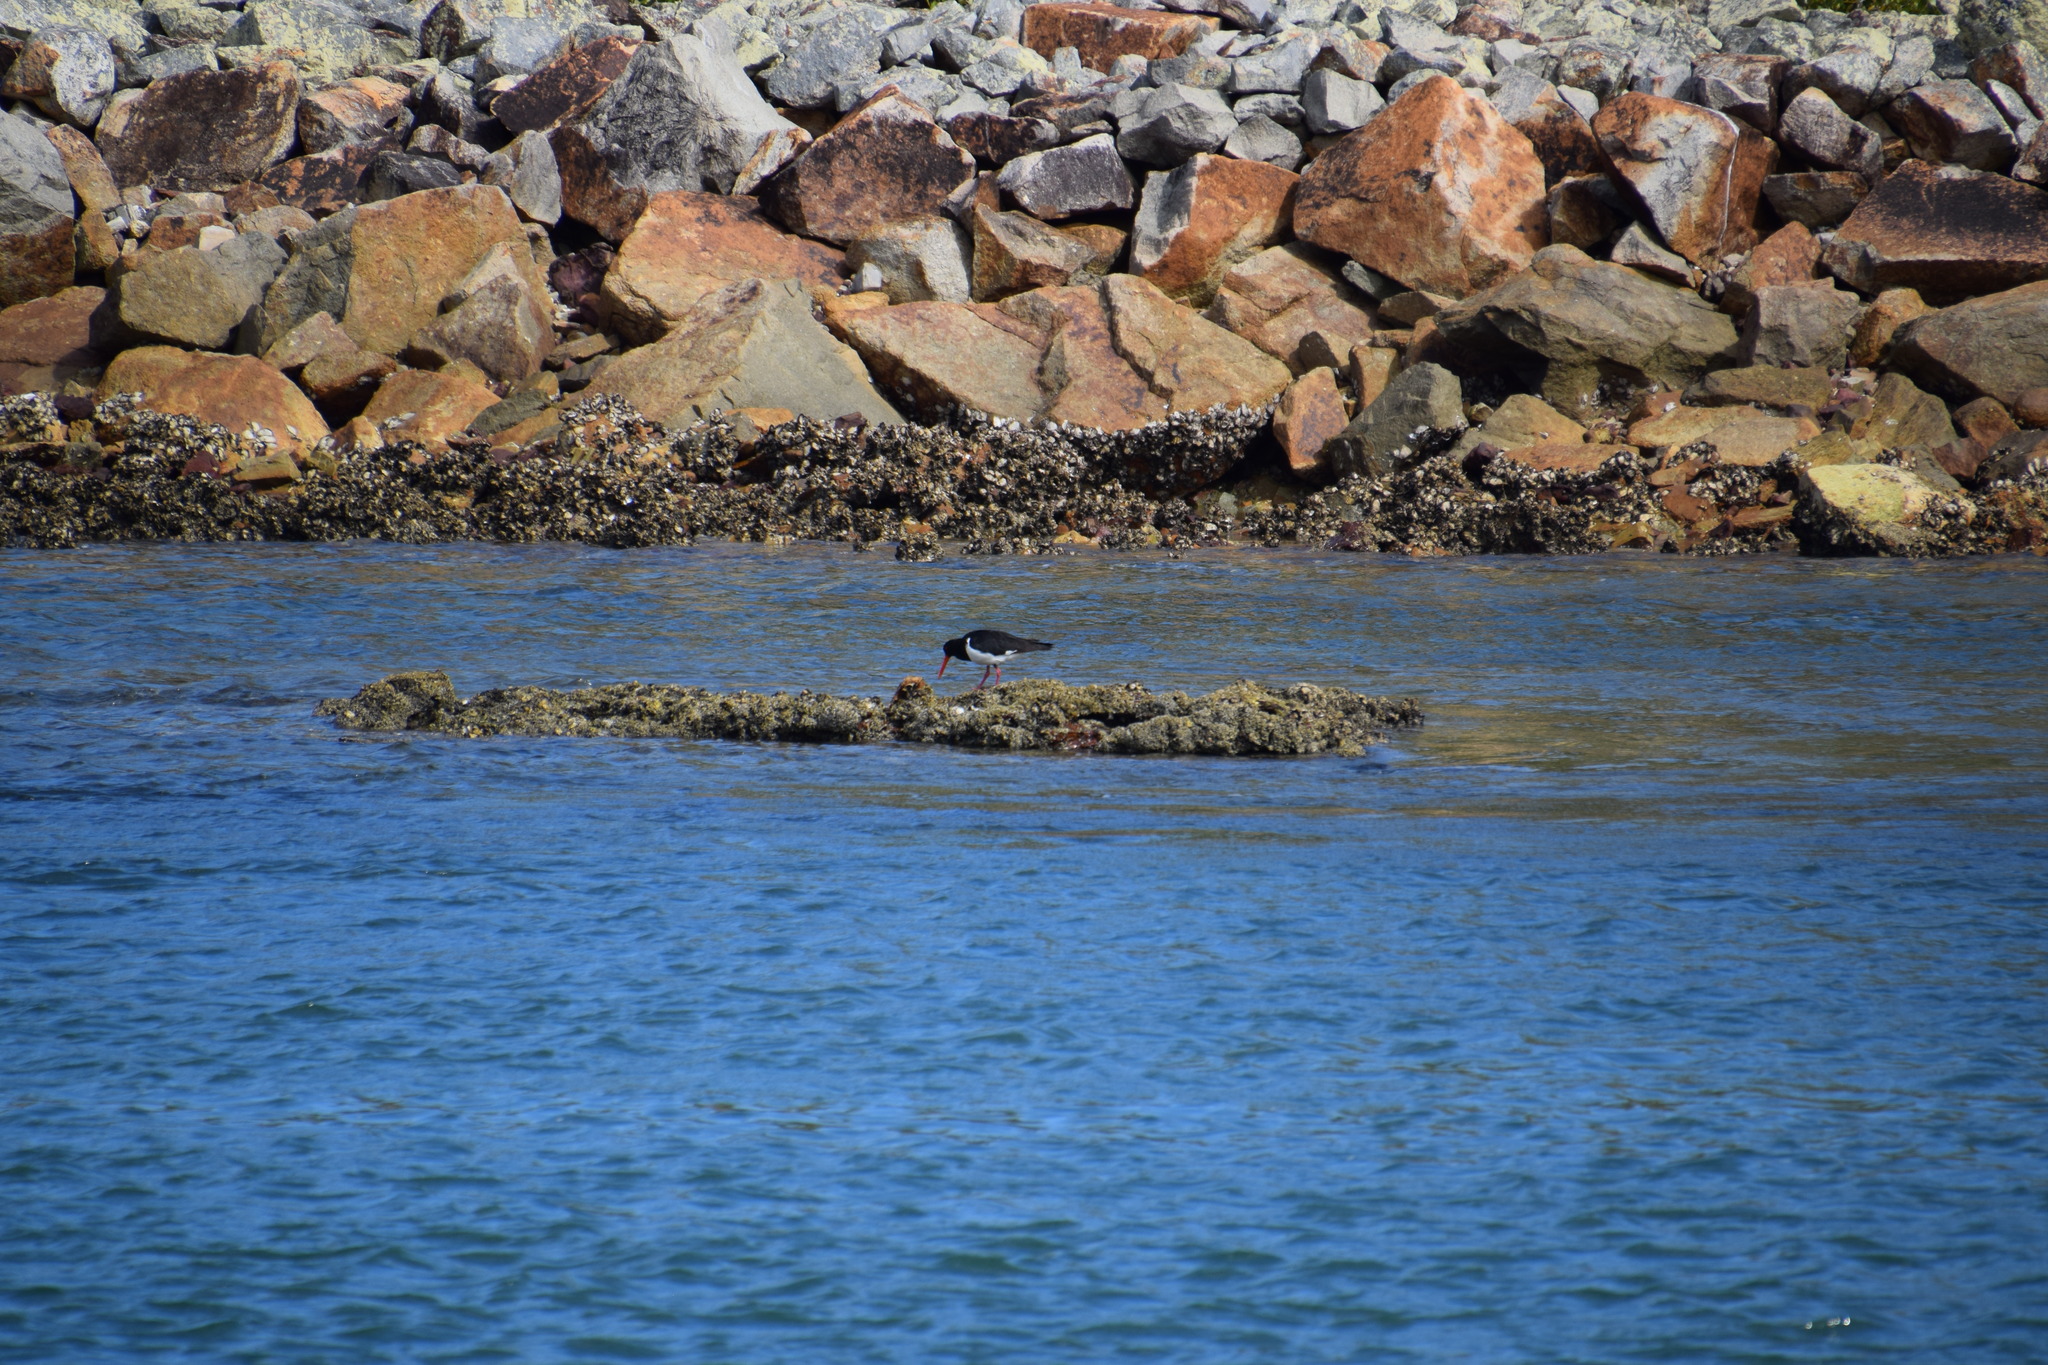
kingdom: Animalia
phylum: Chordata
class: Aves
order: Charadriiformes
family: Haematopodidae
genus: Haematopus
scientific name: Haematopus longirostris
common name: Pied oystercatcher
